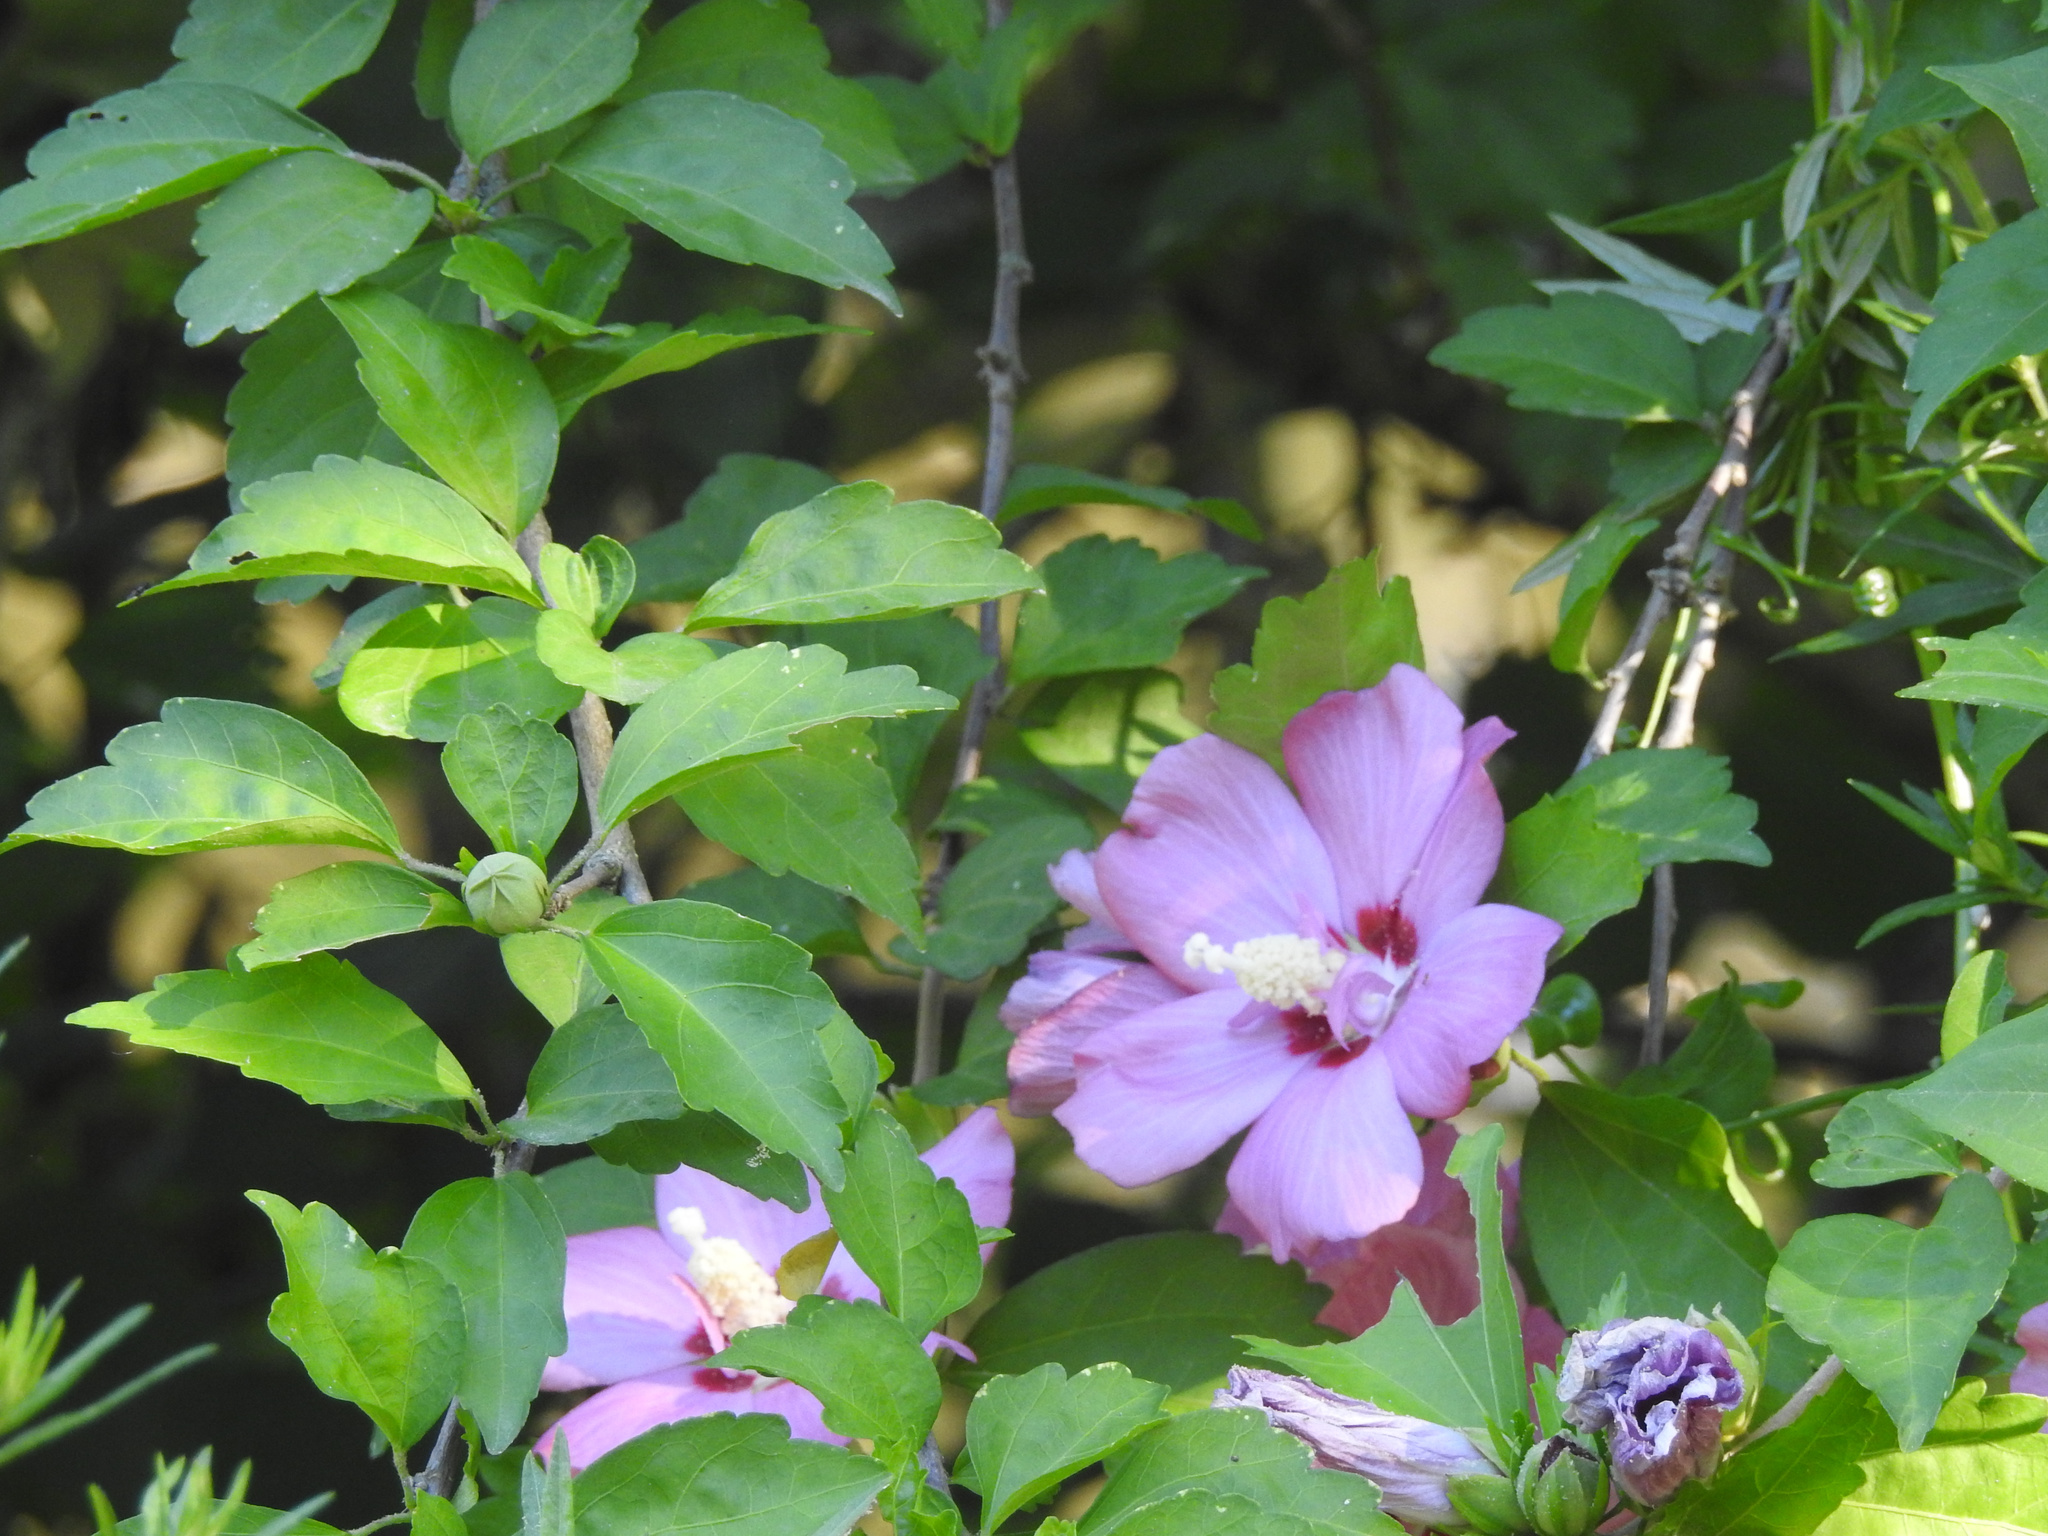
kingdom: Plantae
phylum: Tracheophyta
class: Magnoliopsida
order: Malvales
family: Malvaceae
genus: Hibiscus
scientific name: Hibiscus syriacus
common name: Syrian ketmia
